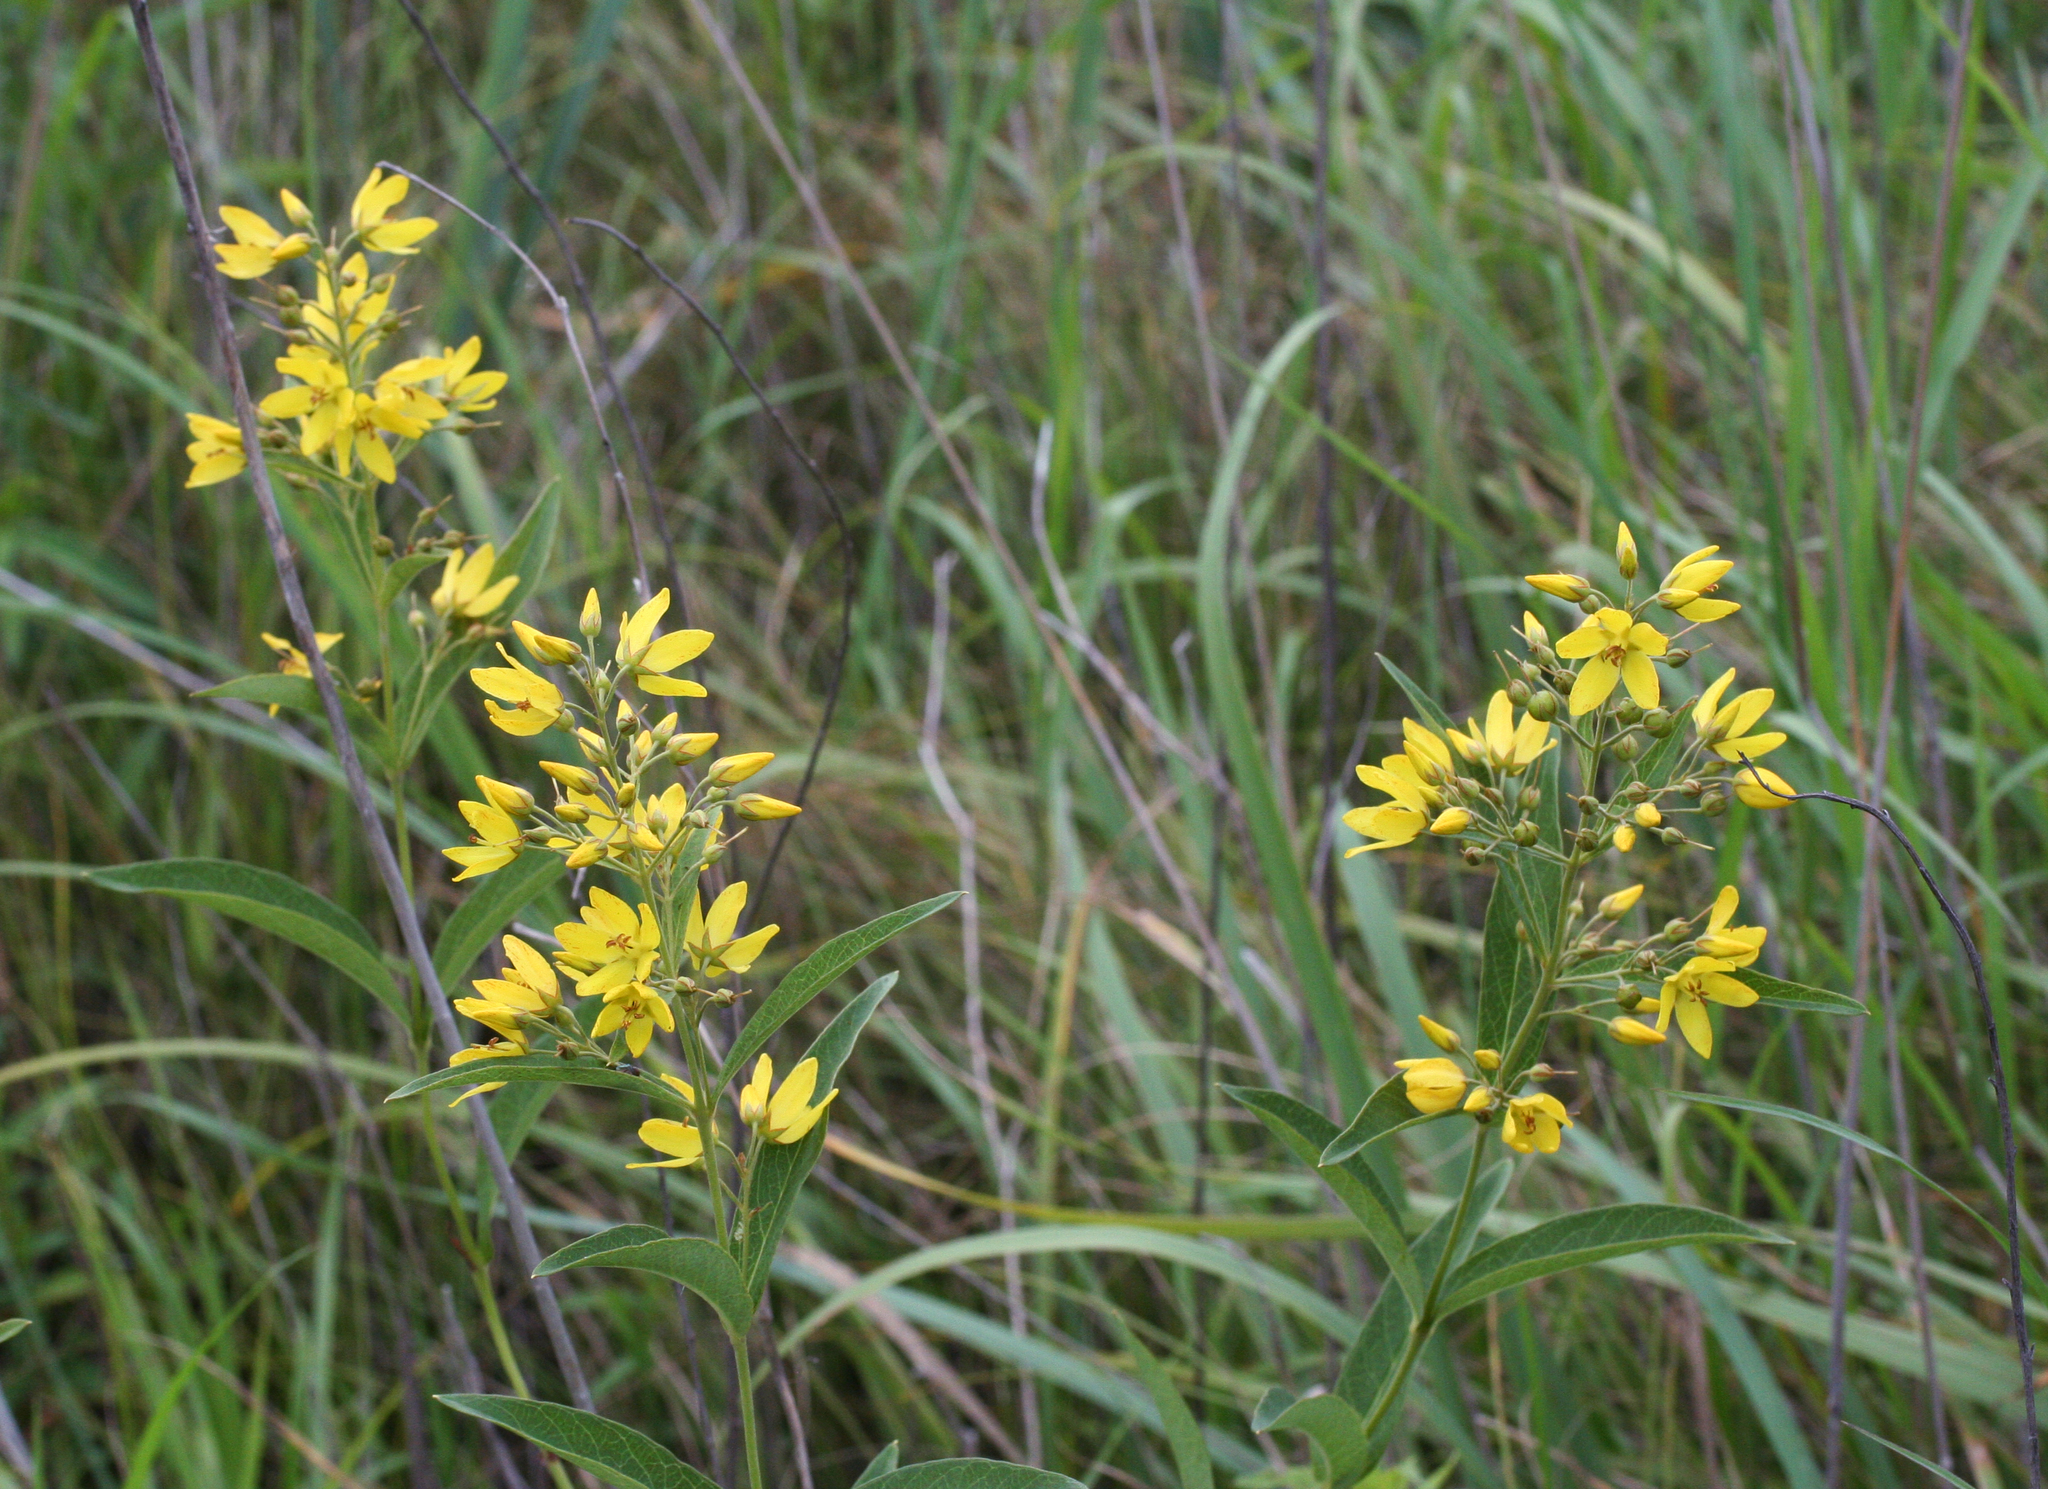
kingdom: Plantae
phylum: Tracheophyta
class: Magnoliopsida
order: Ericales
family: Primulaceae
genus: Lysimachia
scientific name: Lysimachia davurica
